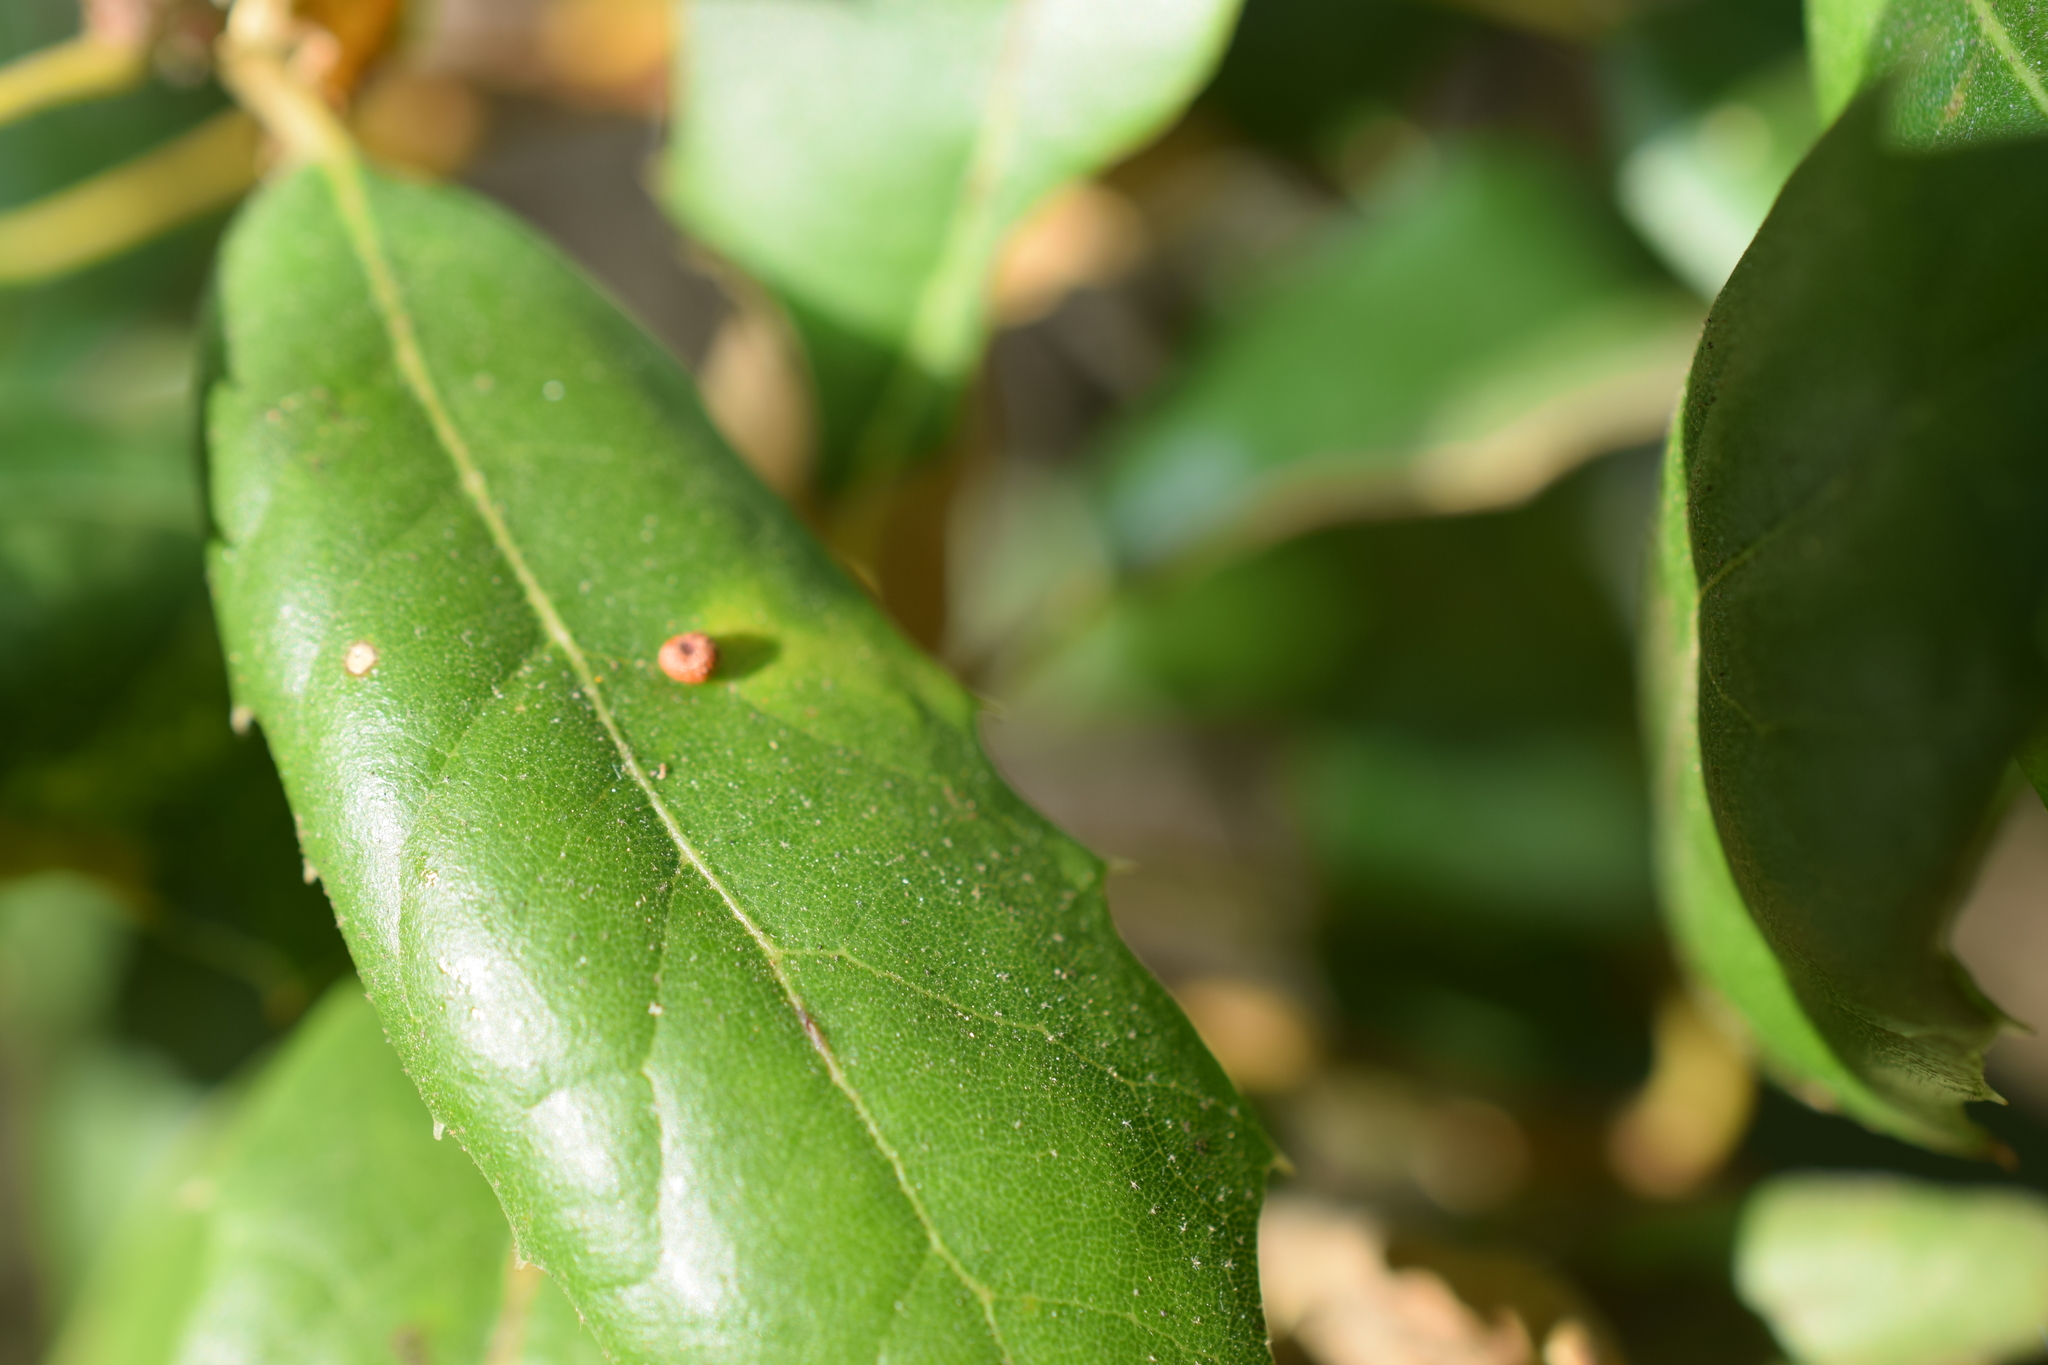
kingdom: Animalia
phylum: Arthropoda
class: Insecta
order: Hymenoptera
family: Cynipidae
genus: Dryocosmus
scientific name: Dryocosmus
